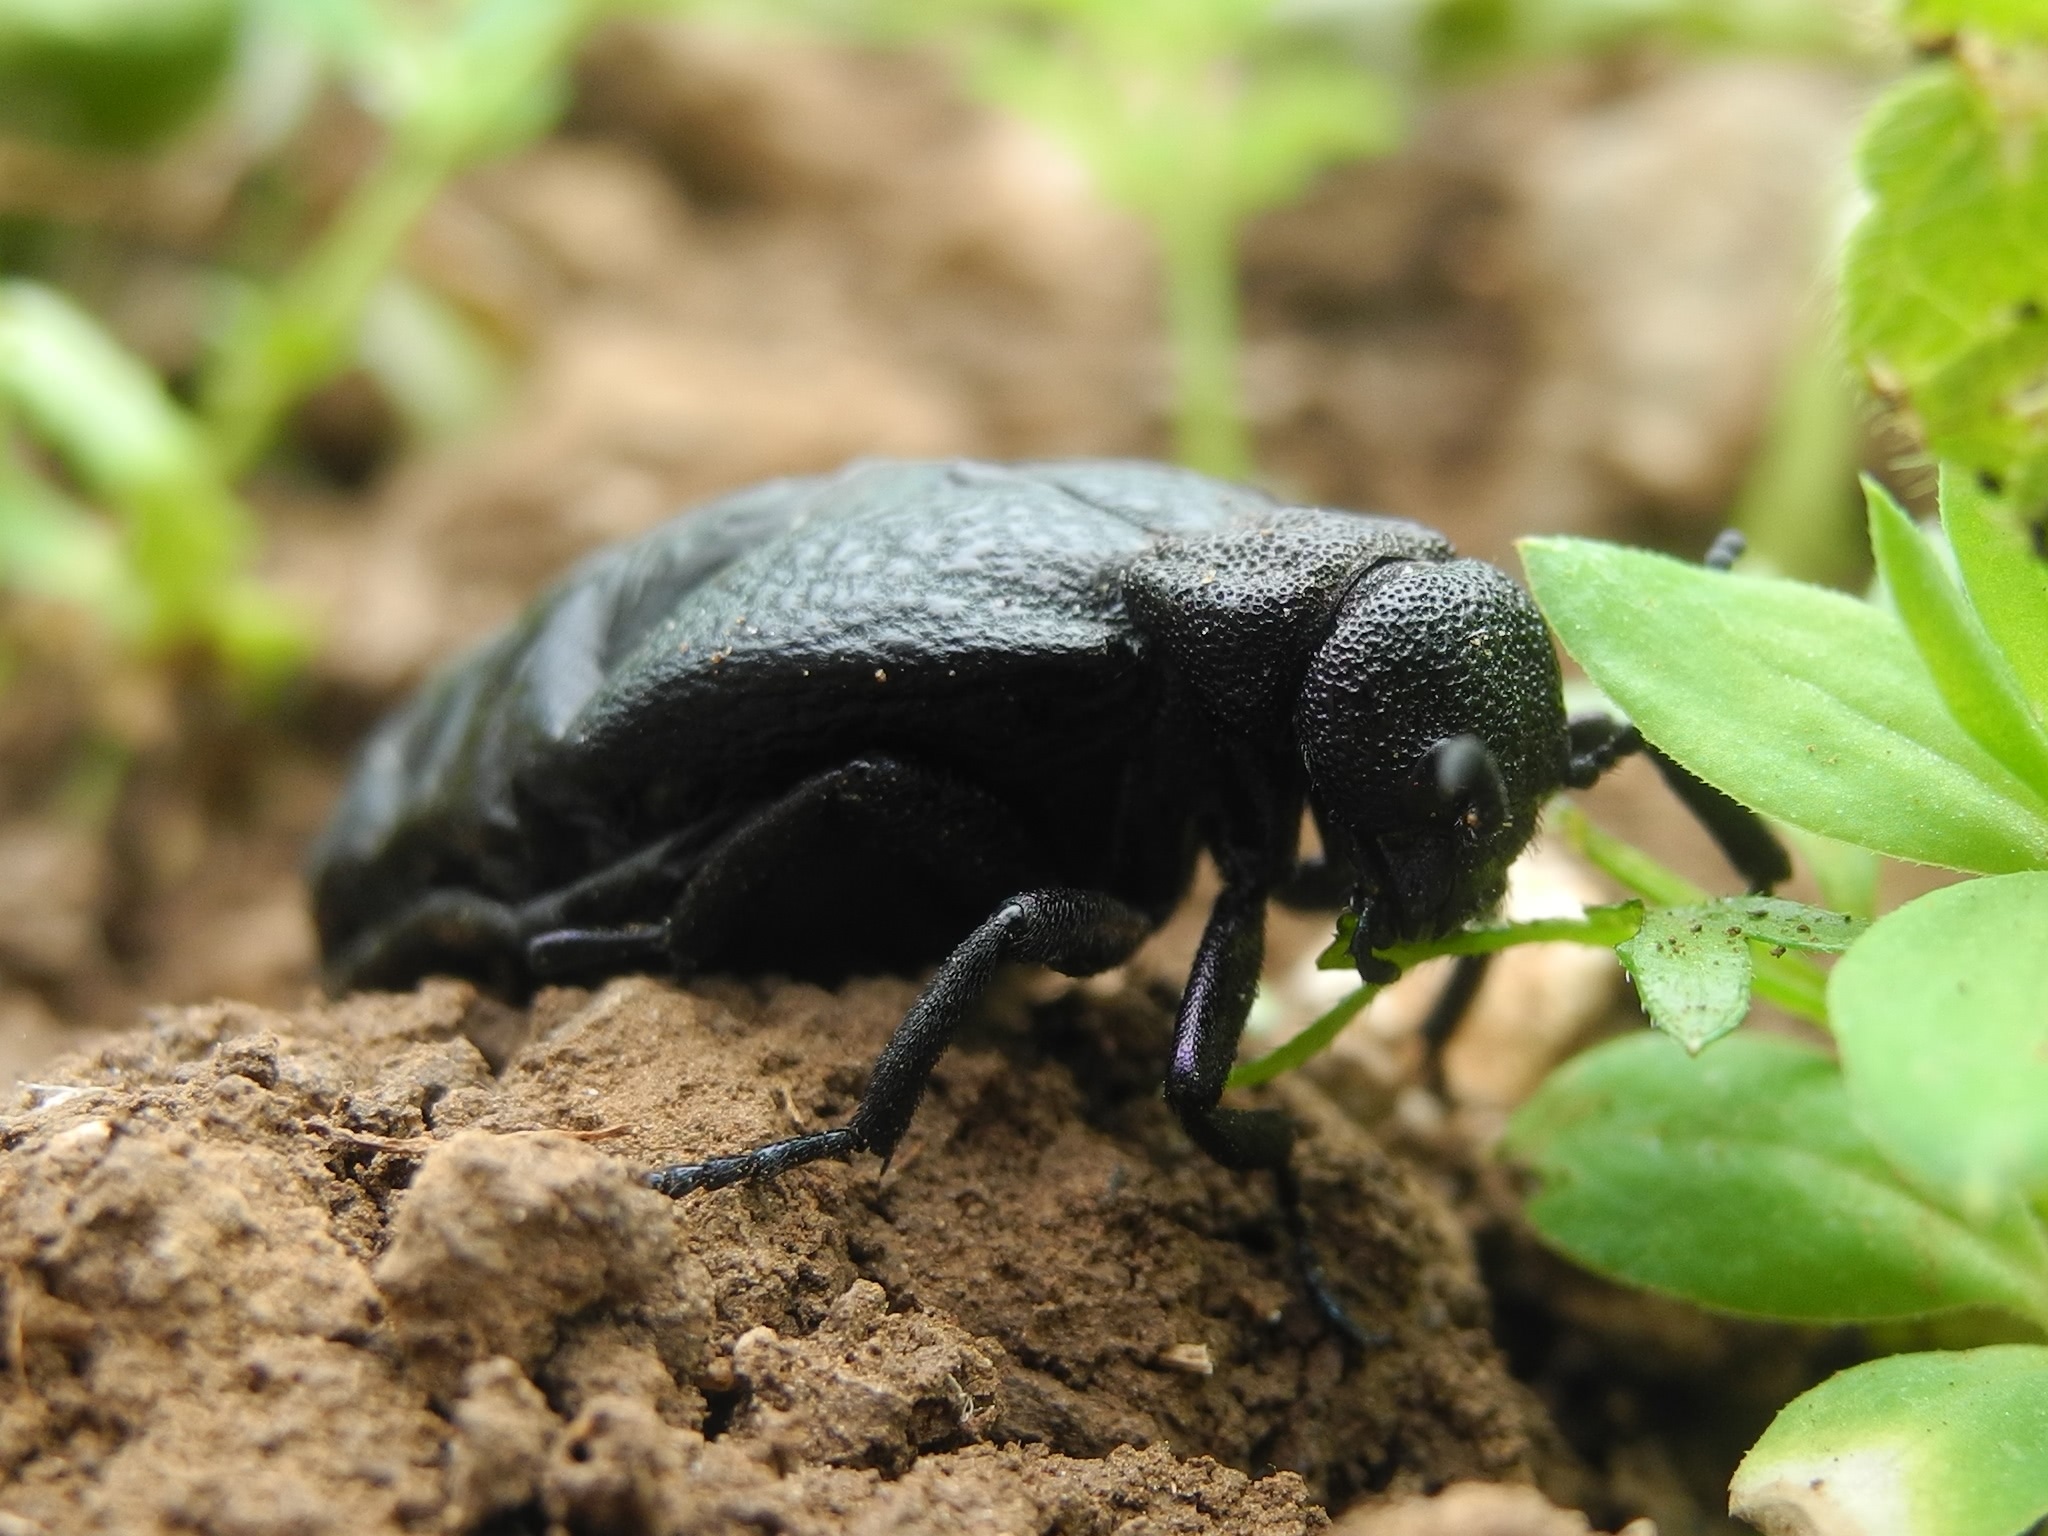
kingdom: Animalia
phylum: Arthropoda
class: Insecta
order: Coleoptera
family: Meloidae
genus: Meloe
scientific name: Meloe cavensis
